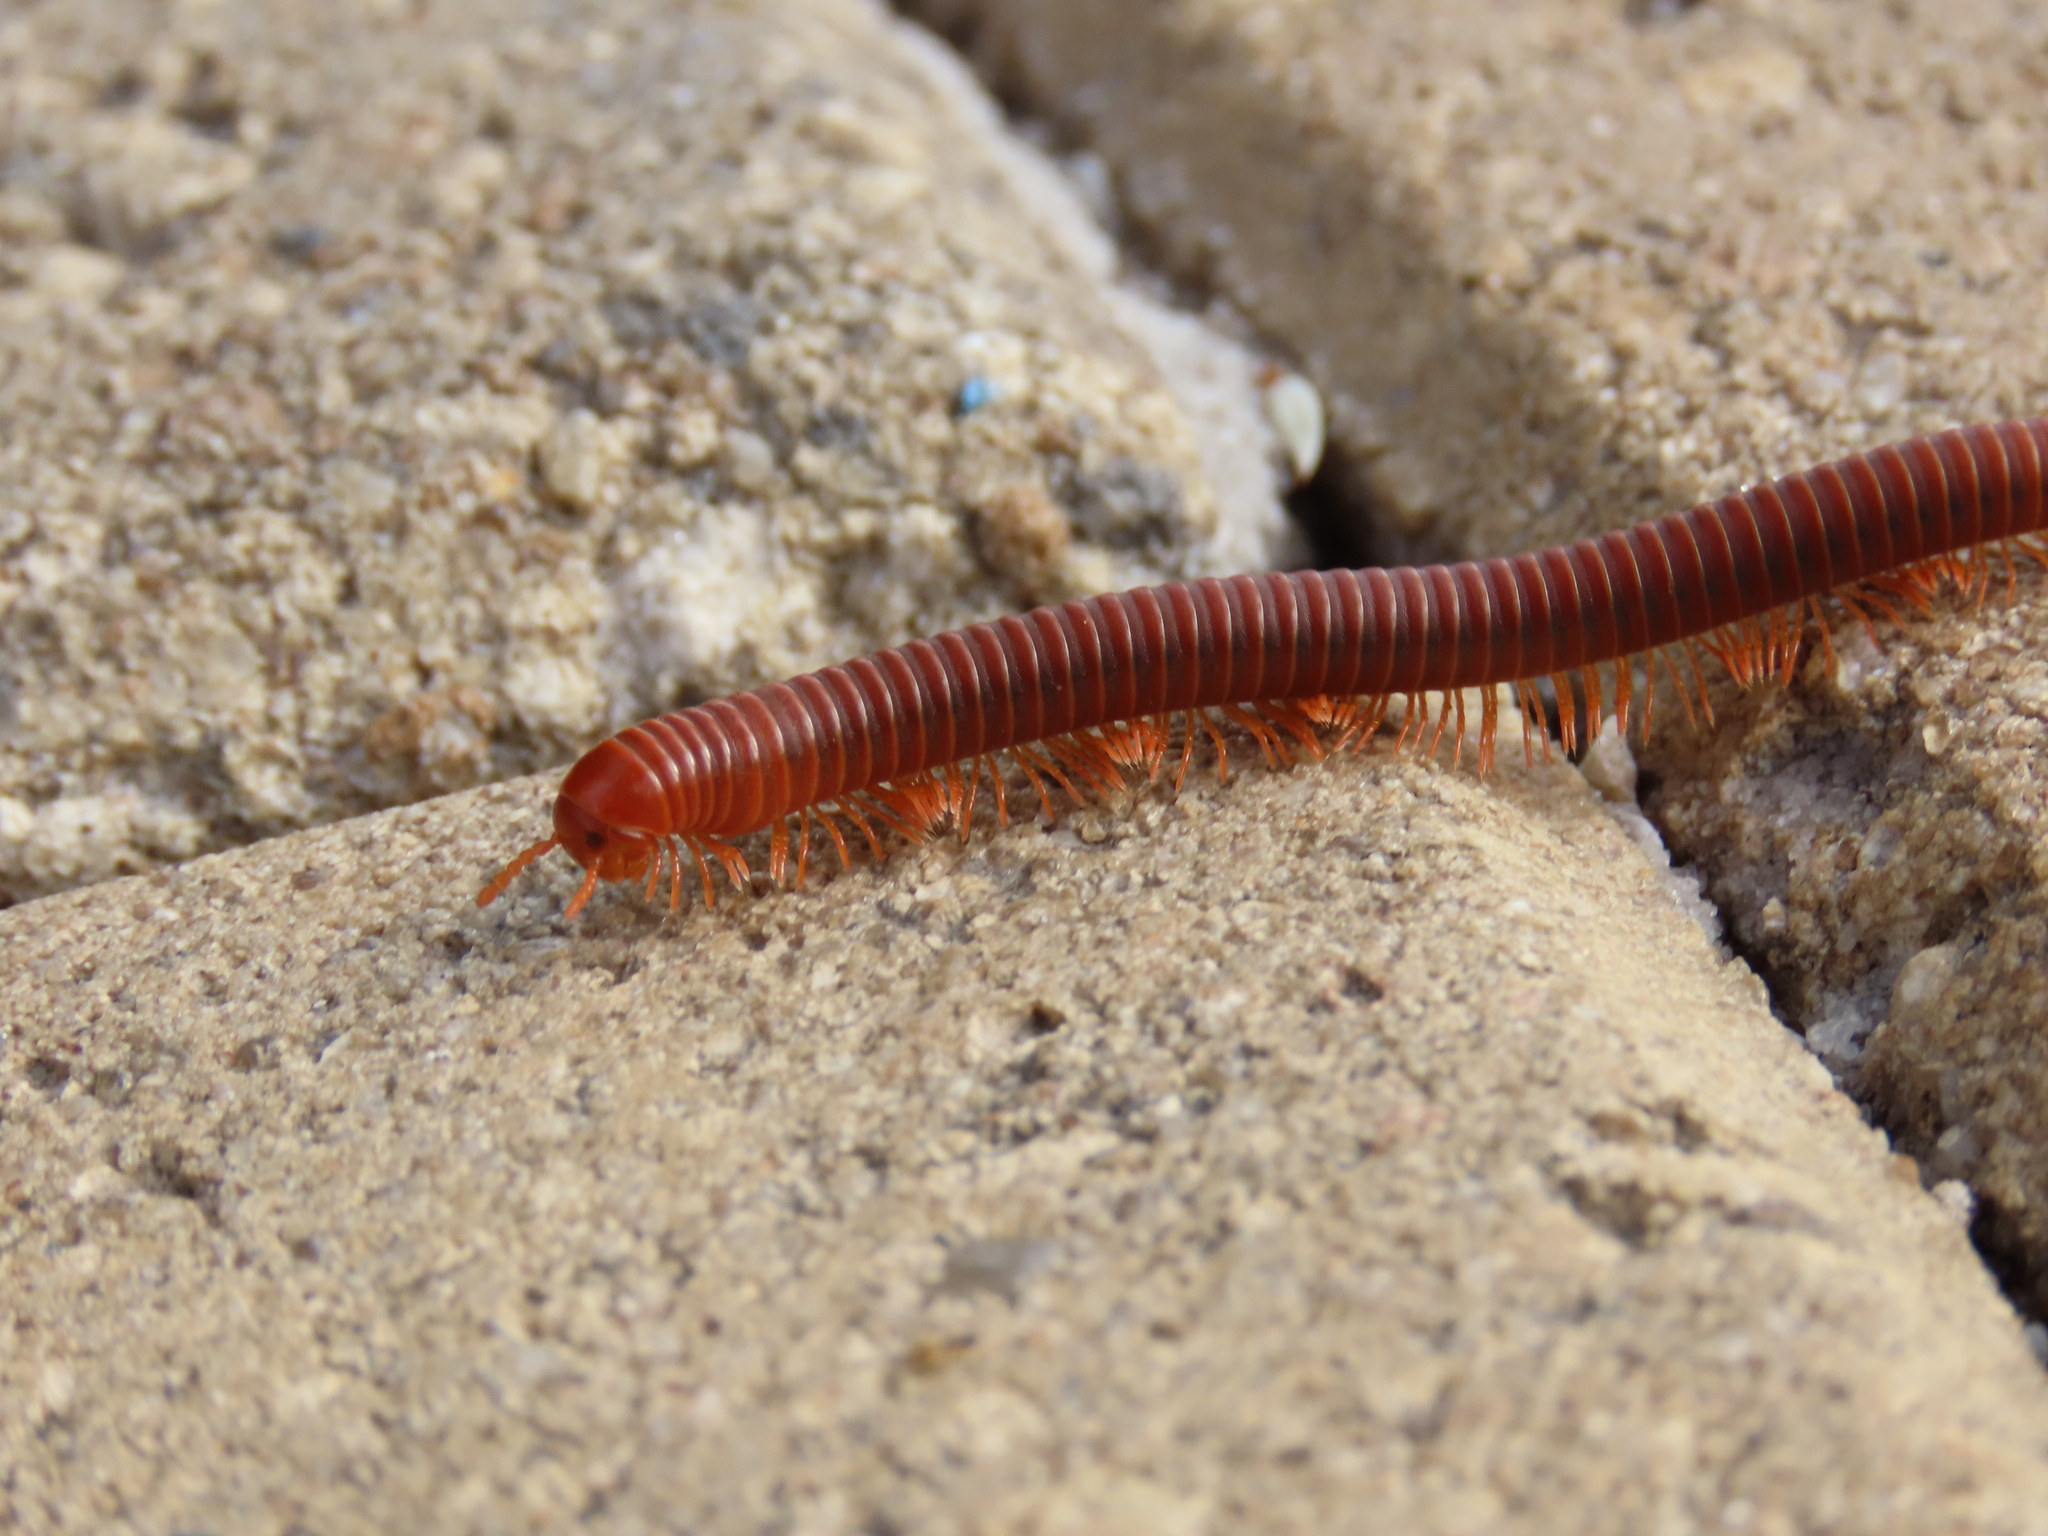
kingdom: Animalia
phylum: Arthropoda
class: Diplopoda
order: Spirobolida
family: Pachybolidae
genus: Trigoniulus
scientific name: Trigoniulus corallinus
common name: Millipede
